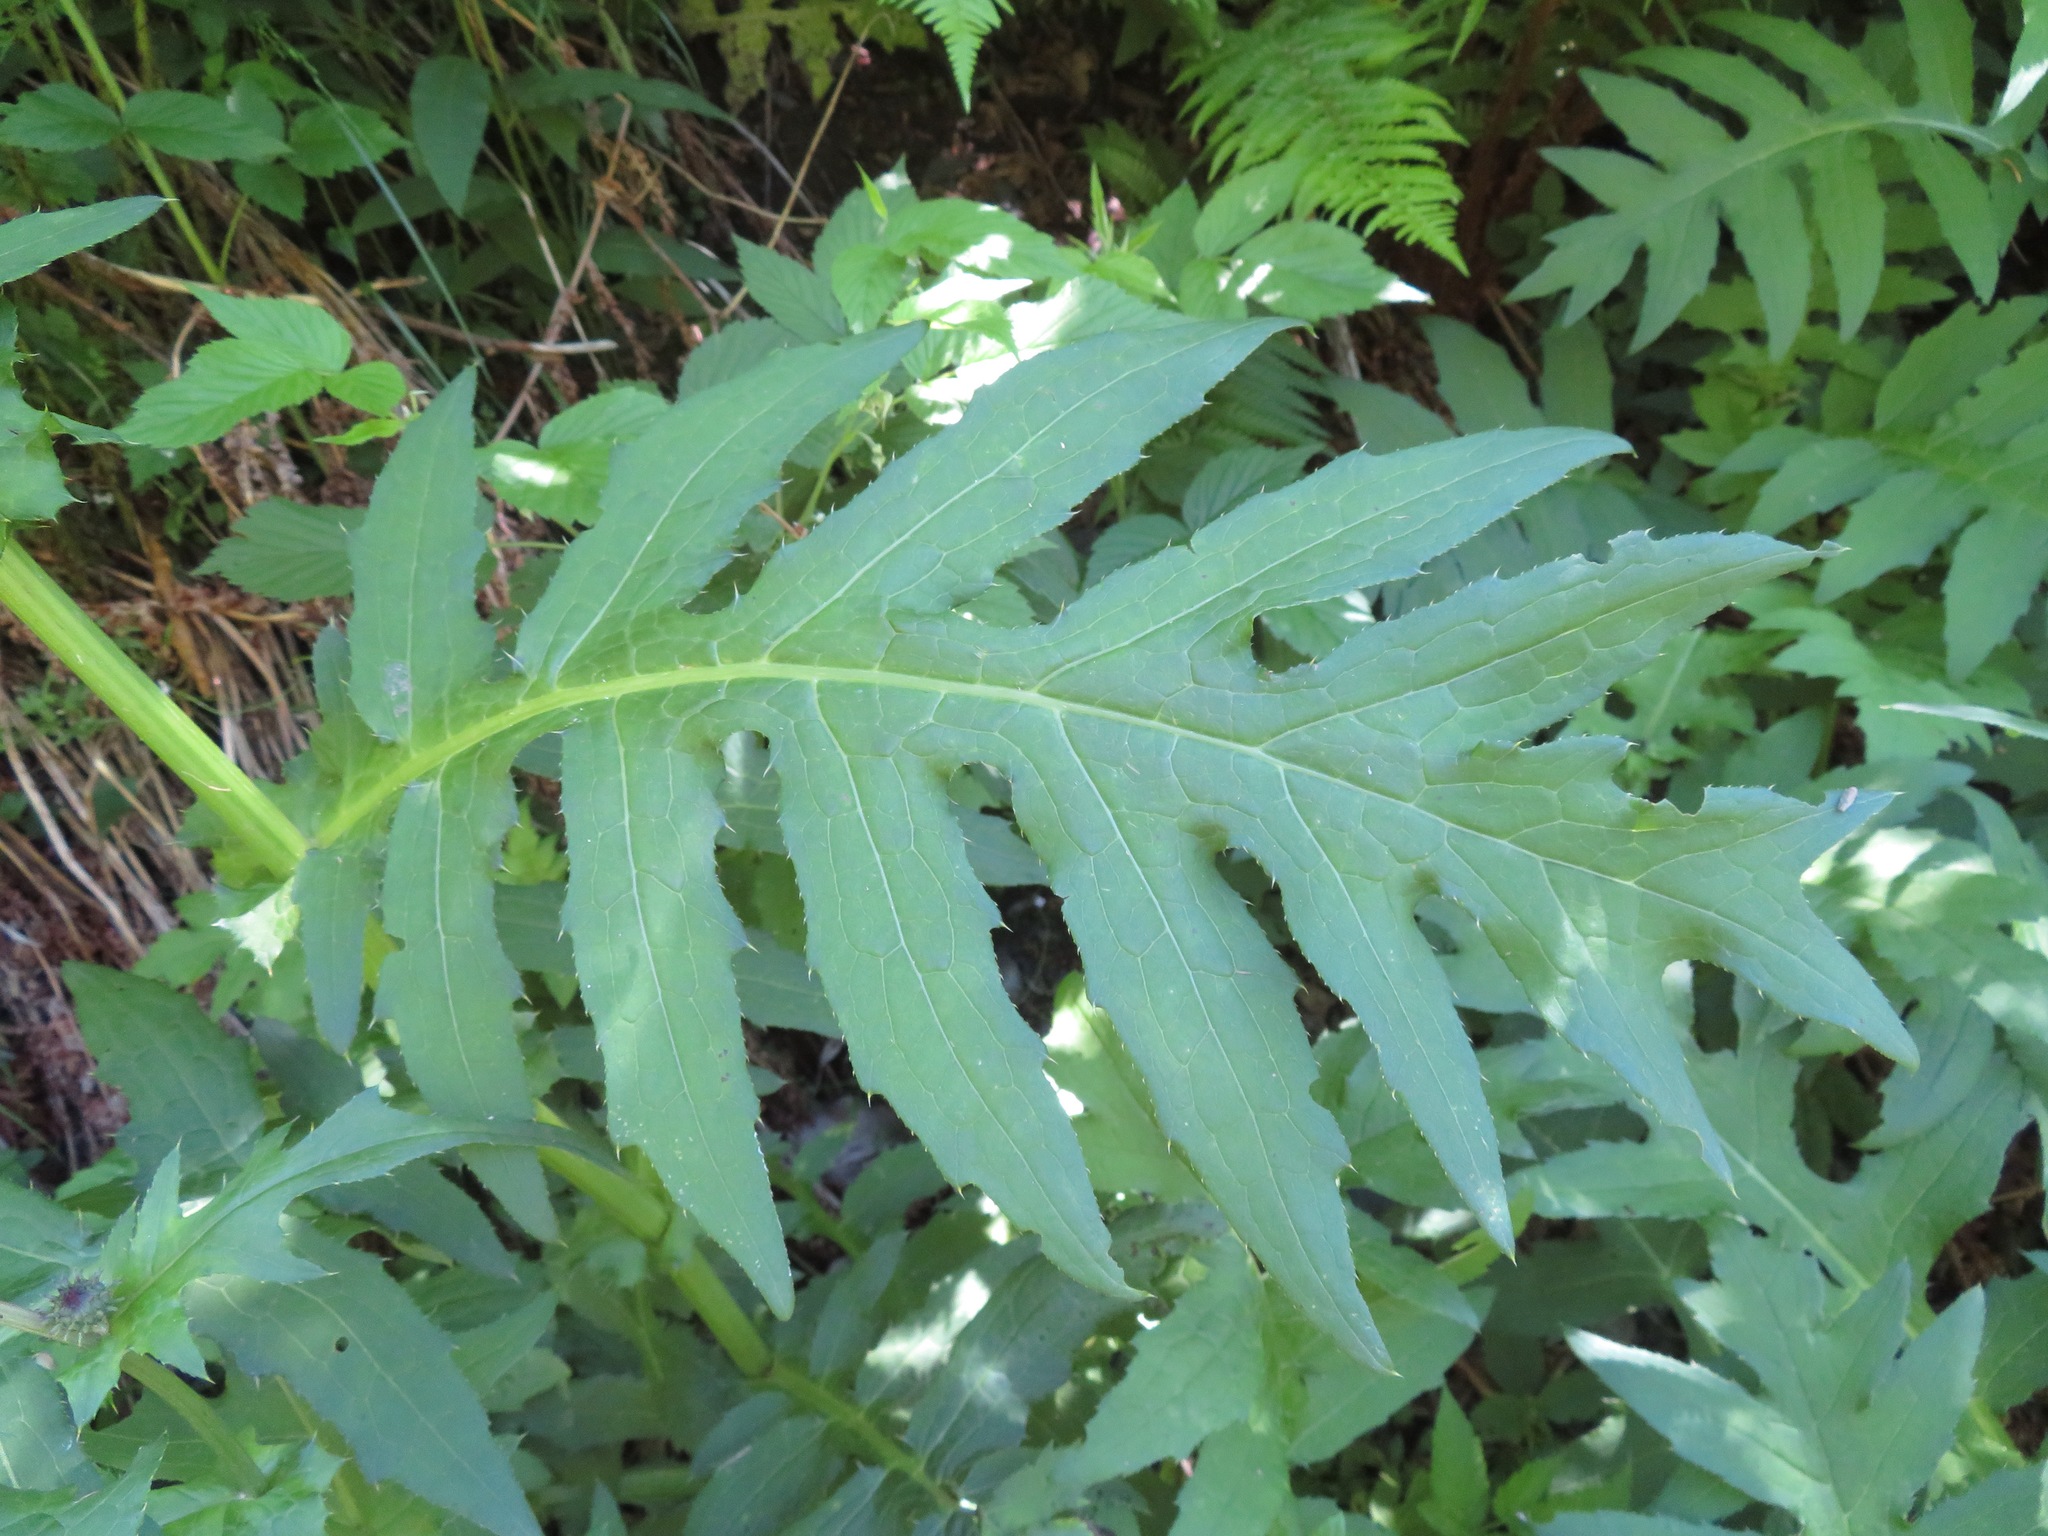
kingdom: Plantae
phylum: Tracheophyta
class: Magnoliopsida
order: Asterales
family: Asteraceae
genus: Cirsium
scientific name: Cirsium alsophilum
